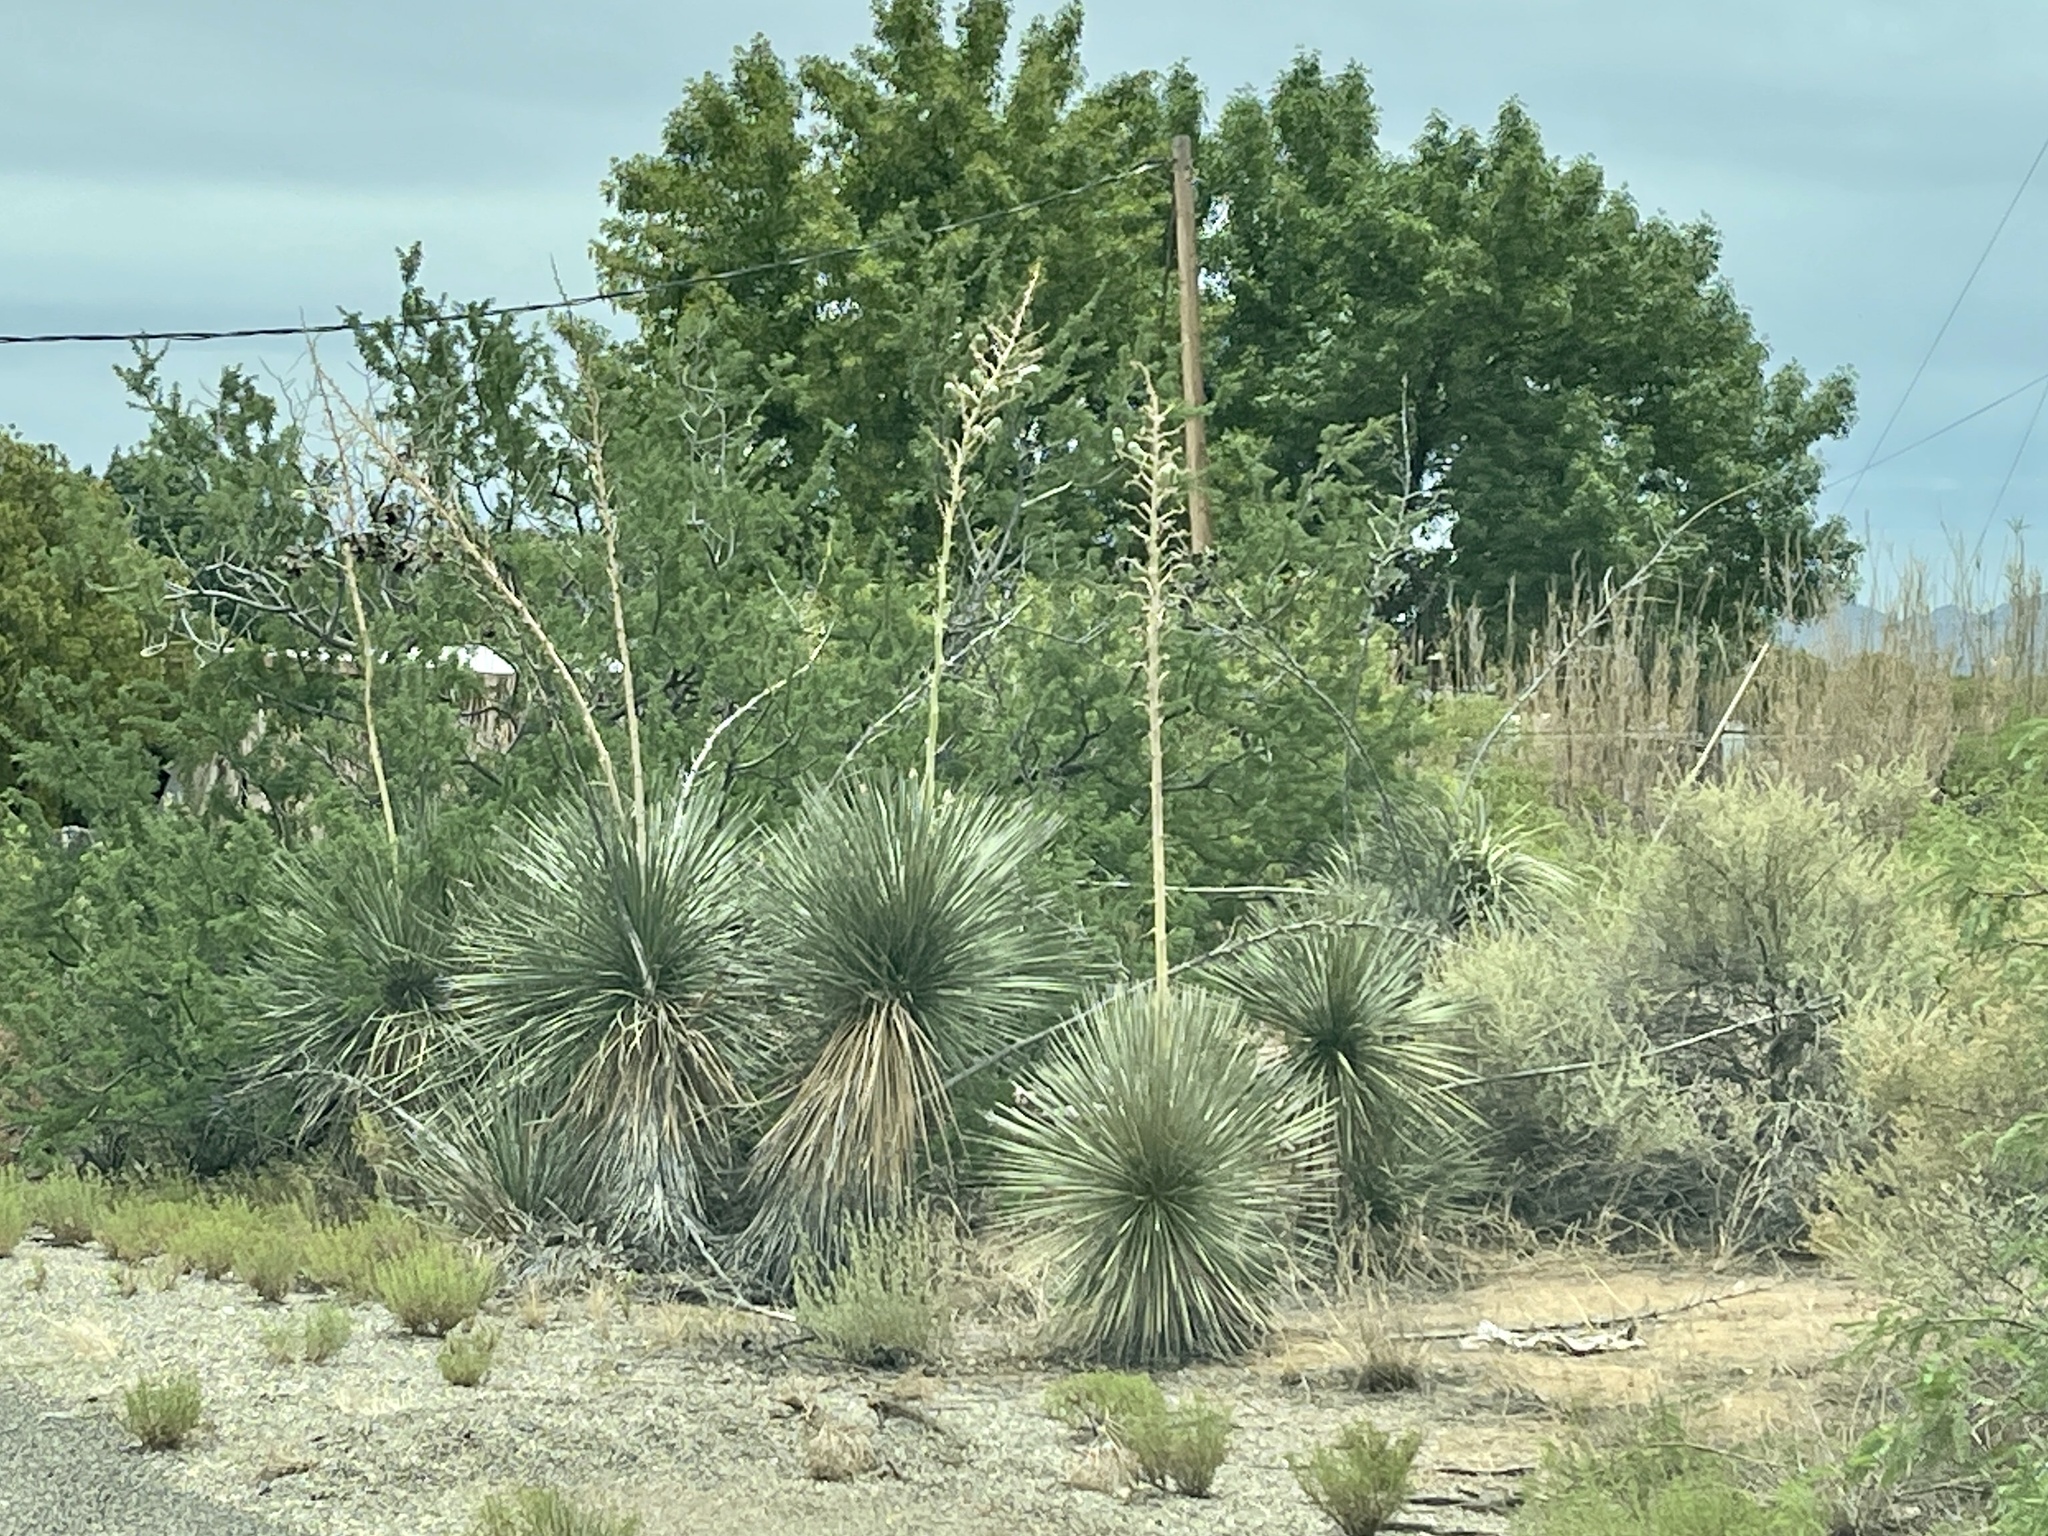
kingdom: Plantae
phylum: Tracheophyta
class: Liliopsida
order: Asparagales
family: Asparagaceae
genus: Yucca
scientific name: Yucca elata
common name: Palmella
